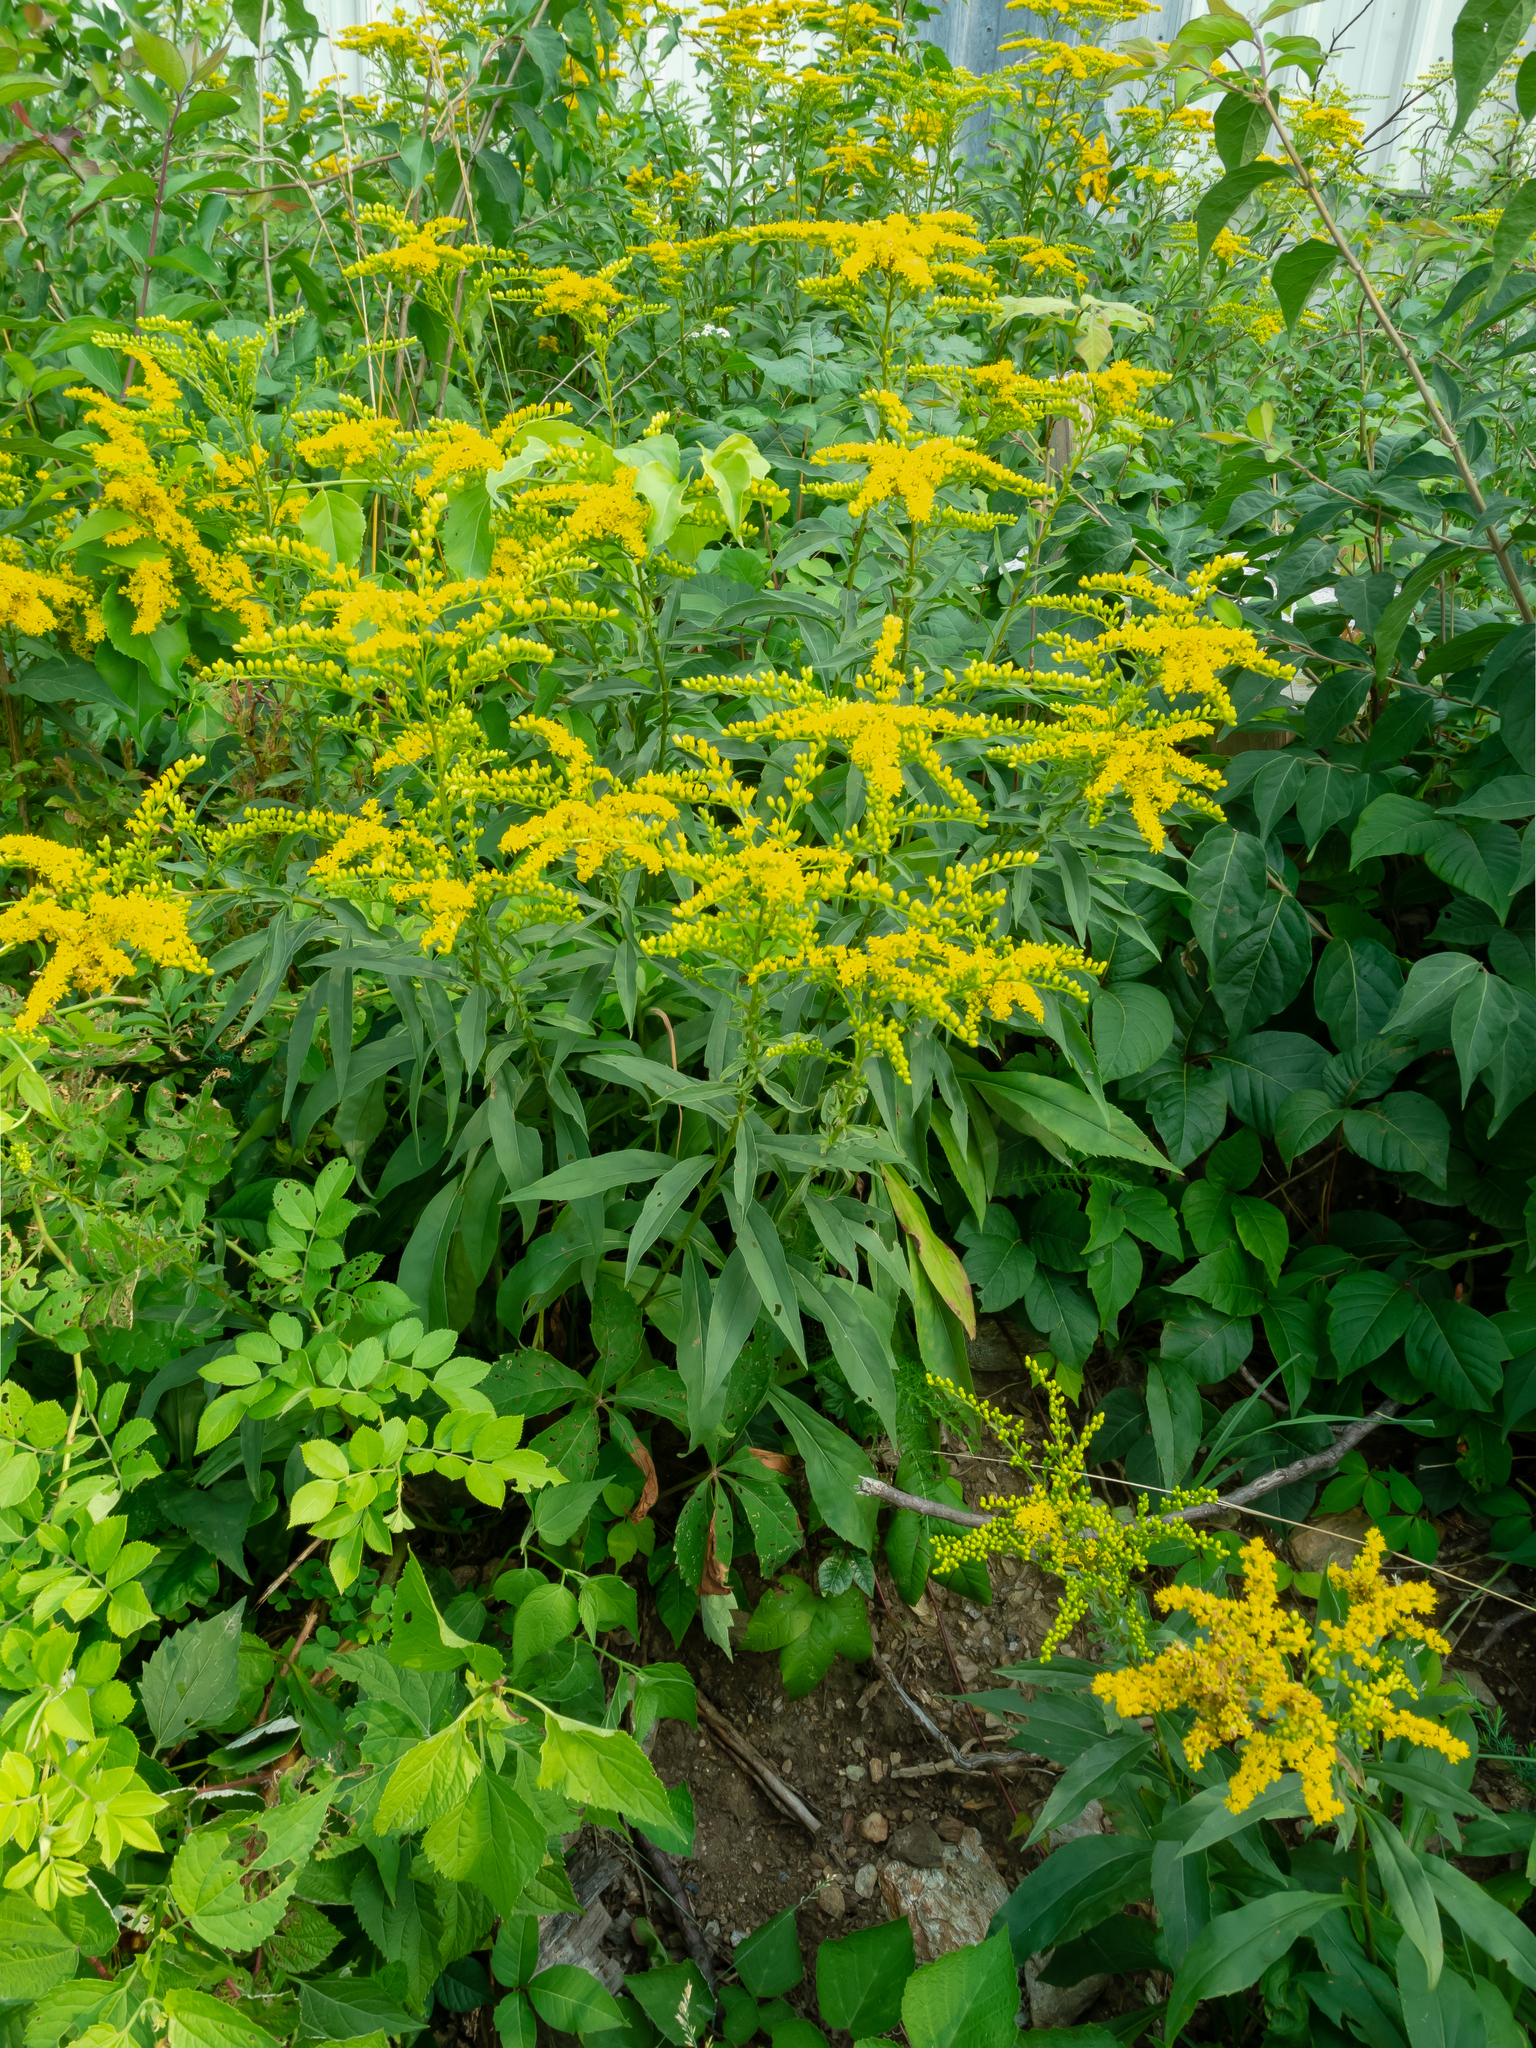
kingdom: Plantae
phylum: Tracheophyta
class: Magnoliopsida
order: Asterales
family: Asteraceae
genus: Solidago
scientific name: Solidago juncea
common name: Early goldenrod
